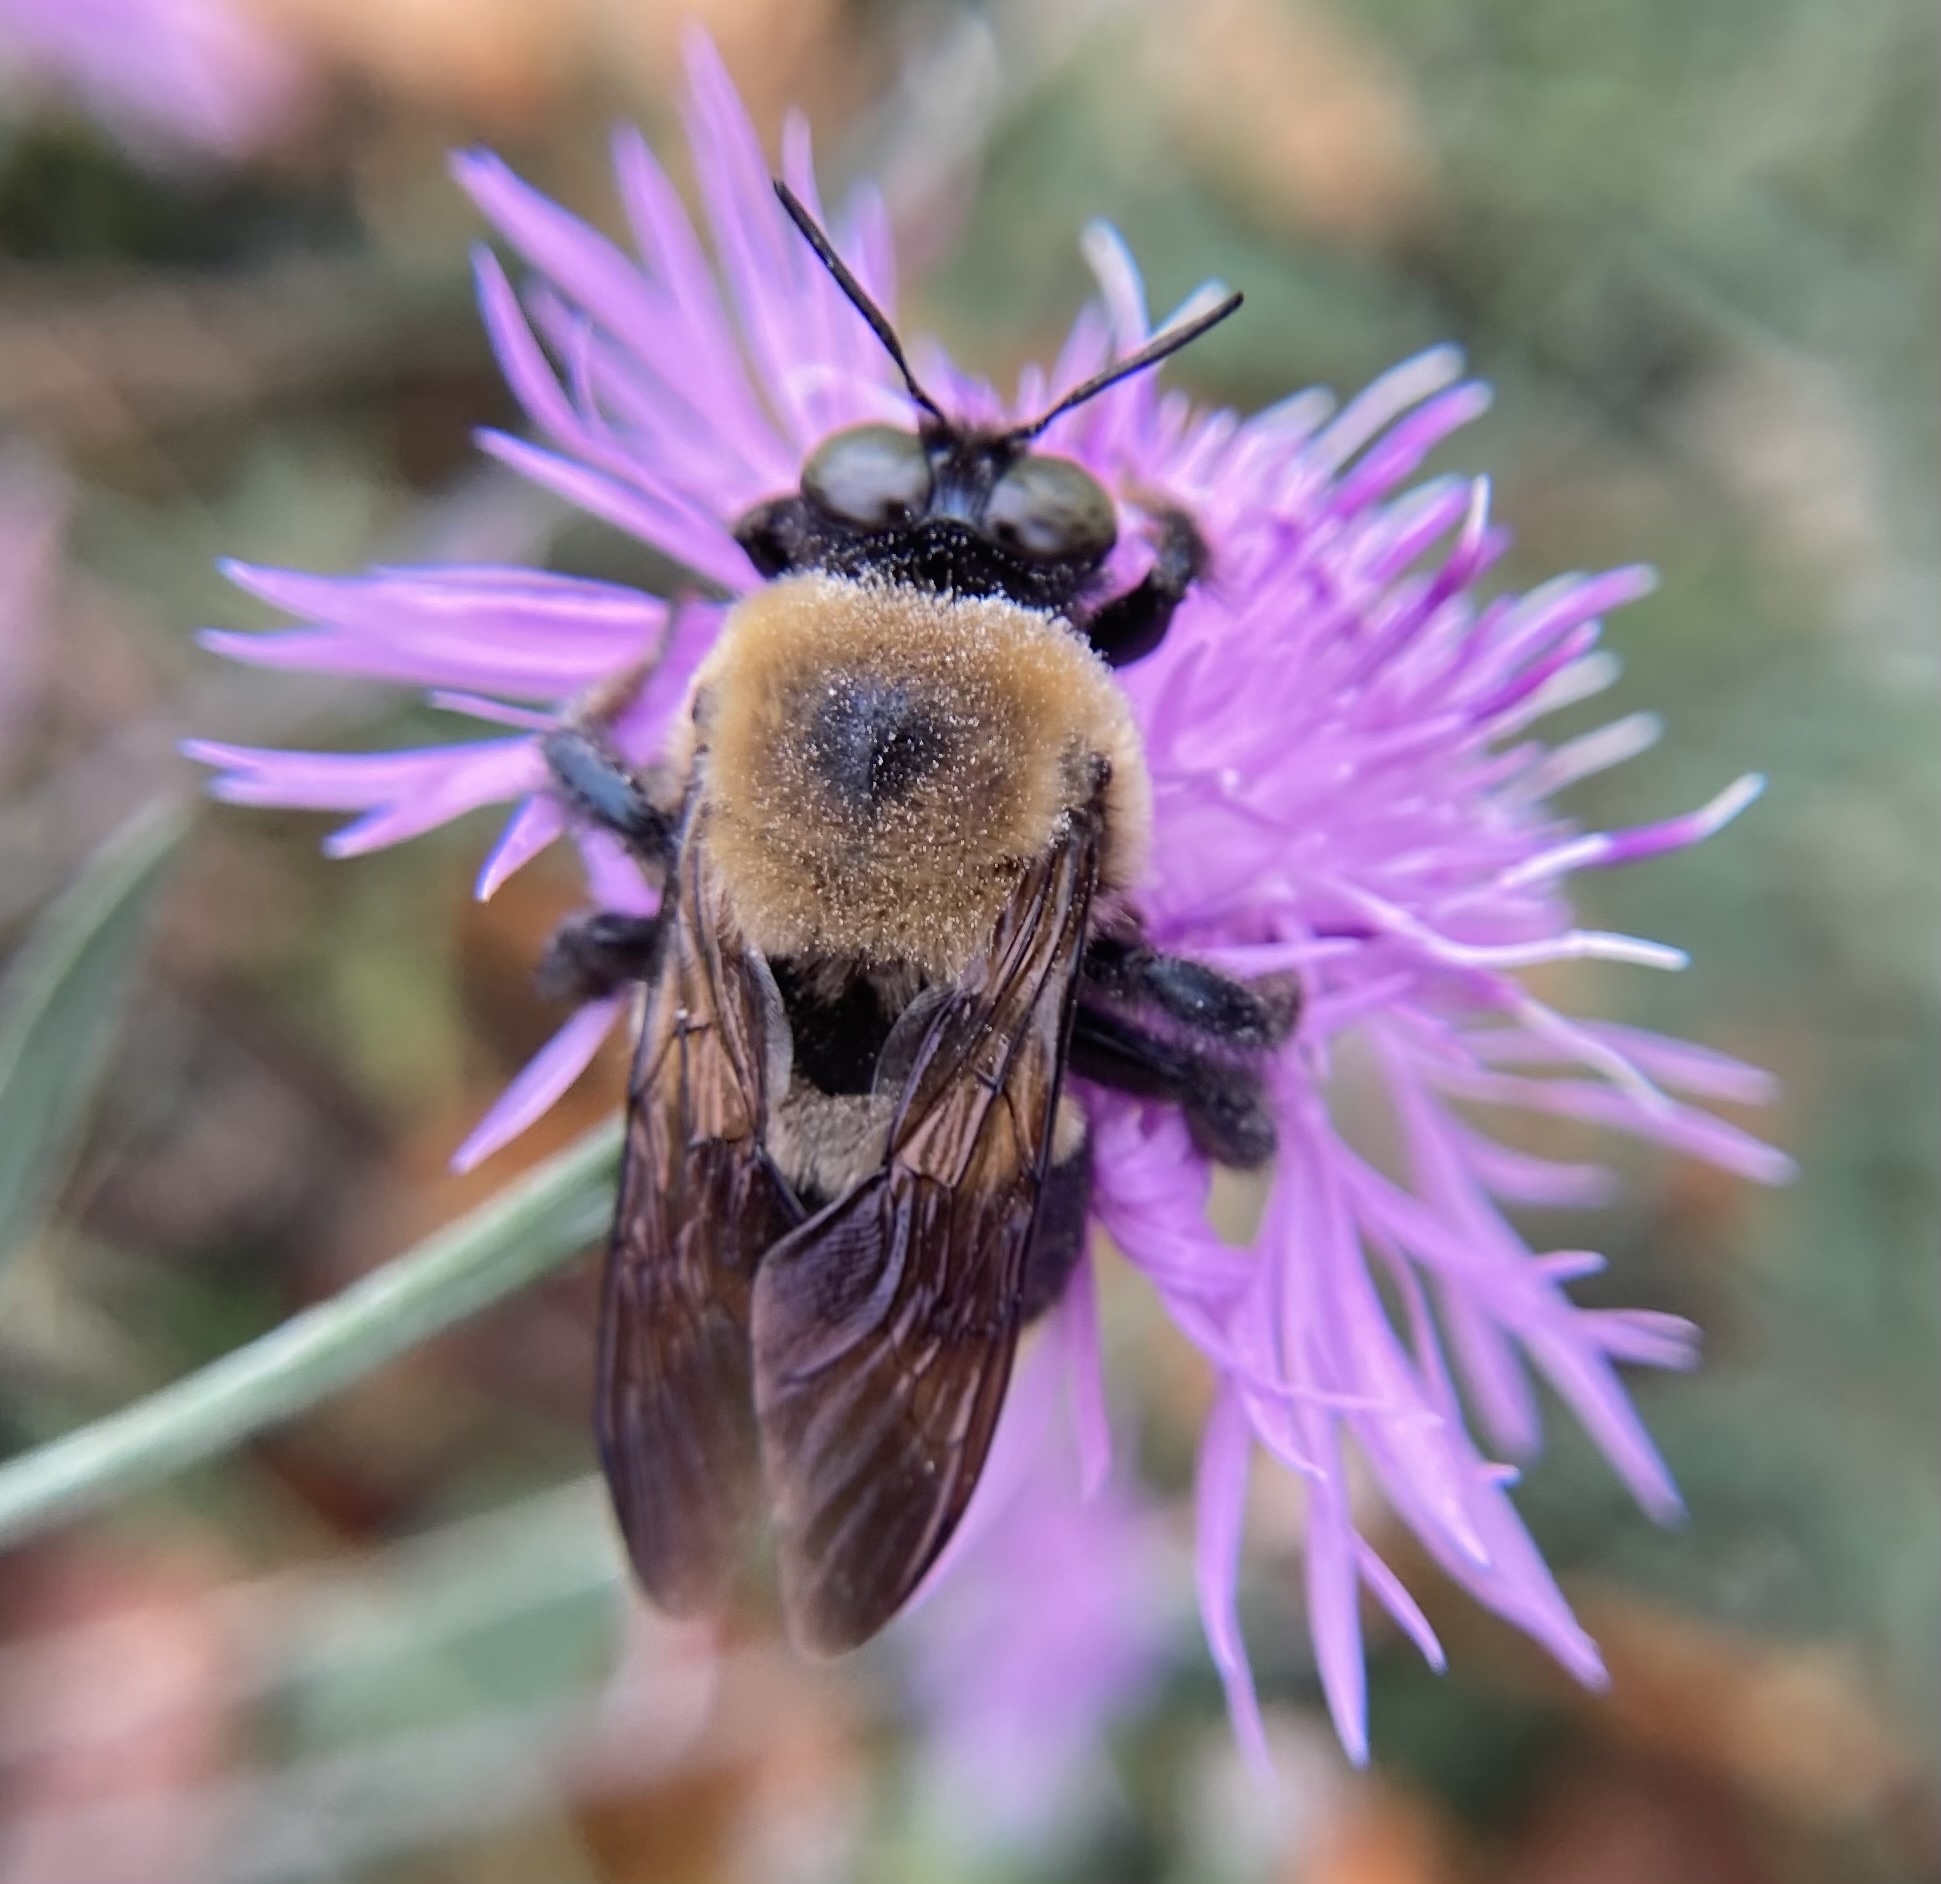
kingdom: Animalia
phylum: Arthropoda
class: Insecta
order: Hymenoptera
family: Apidae
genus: Xylocopa
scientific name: Xylocopa virginica
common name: Carpenter bee
